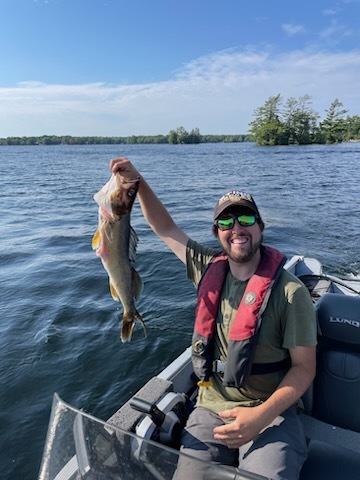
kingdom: Animalia
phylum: Chordata
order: Perciformes
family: Percidae
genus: Sander
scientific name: Sander vitreus
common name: Walleye
